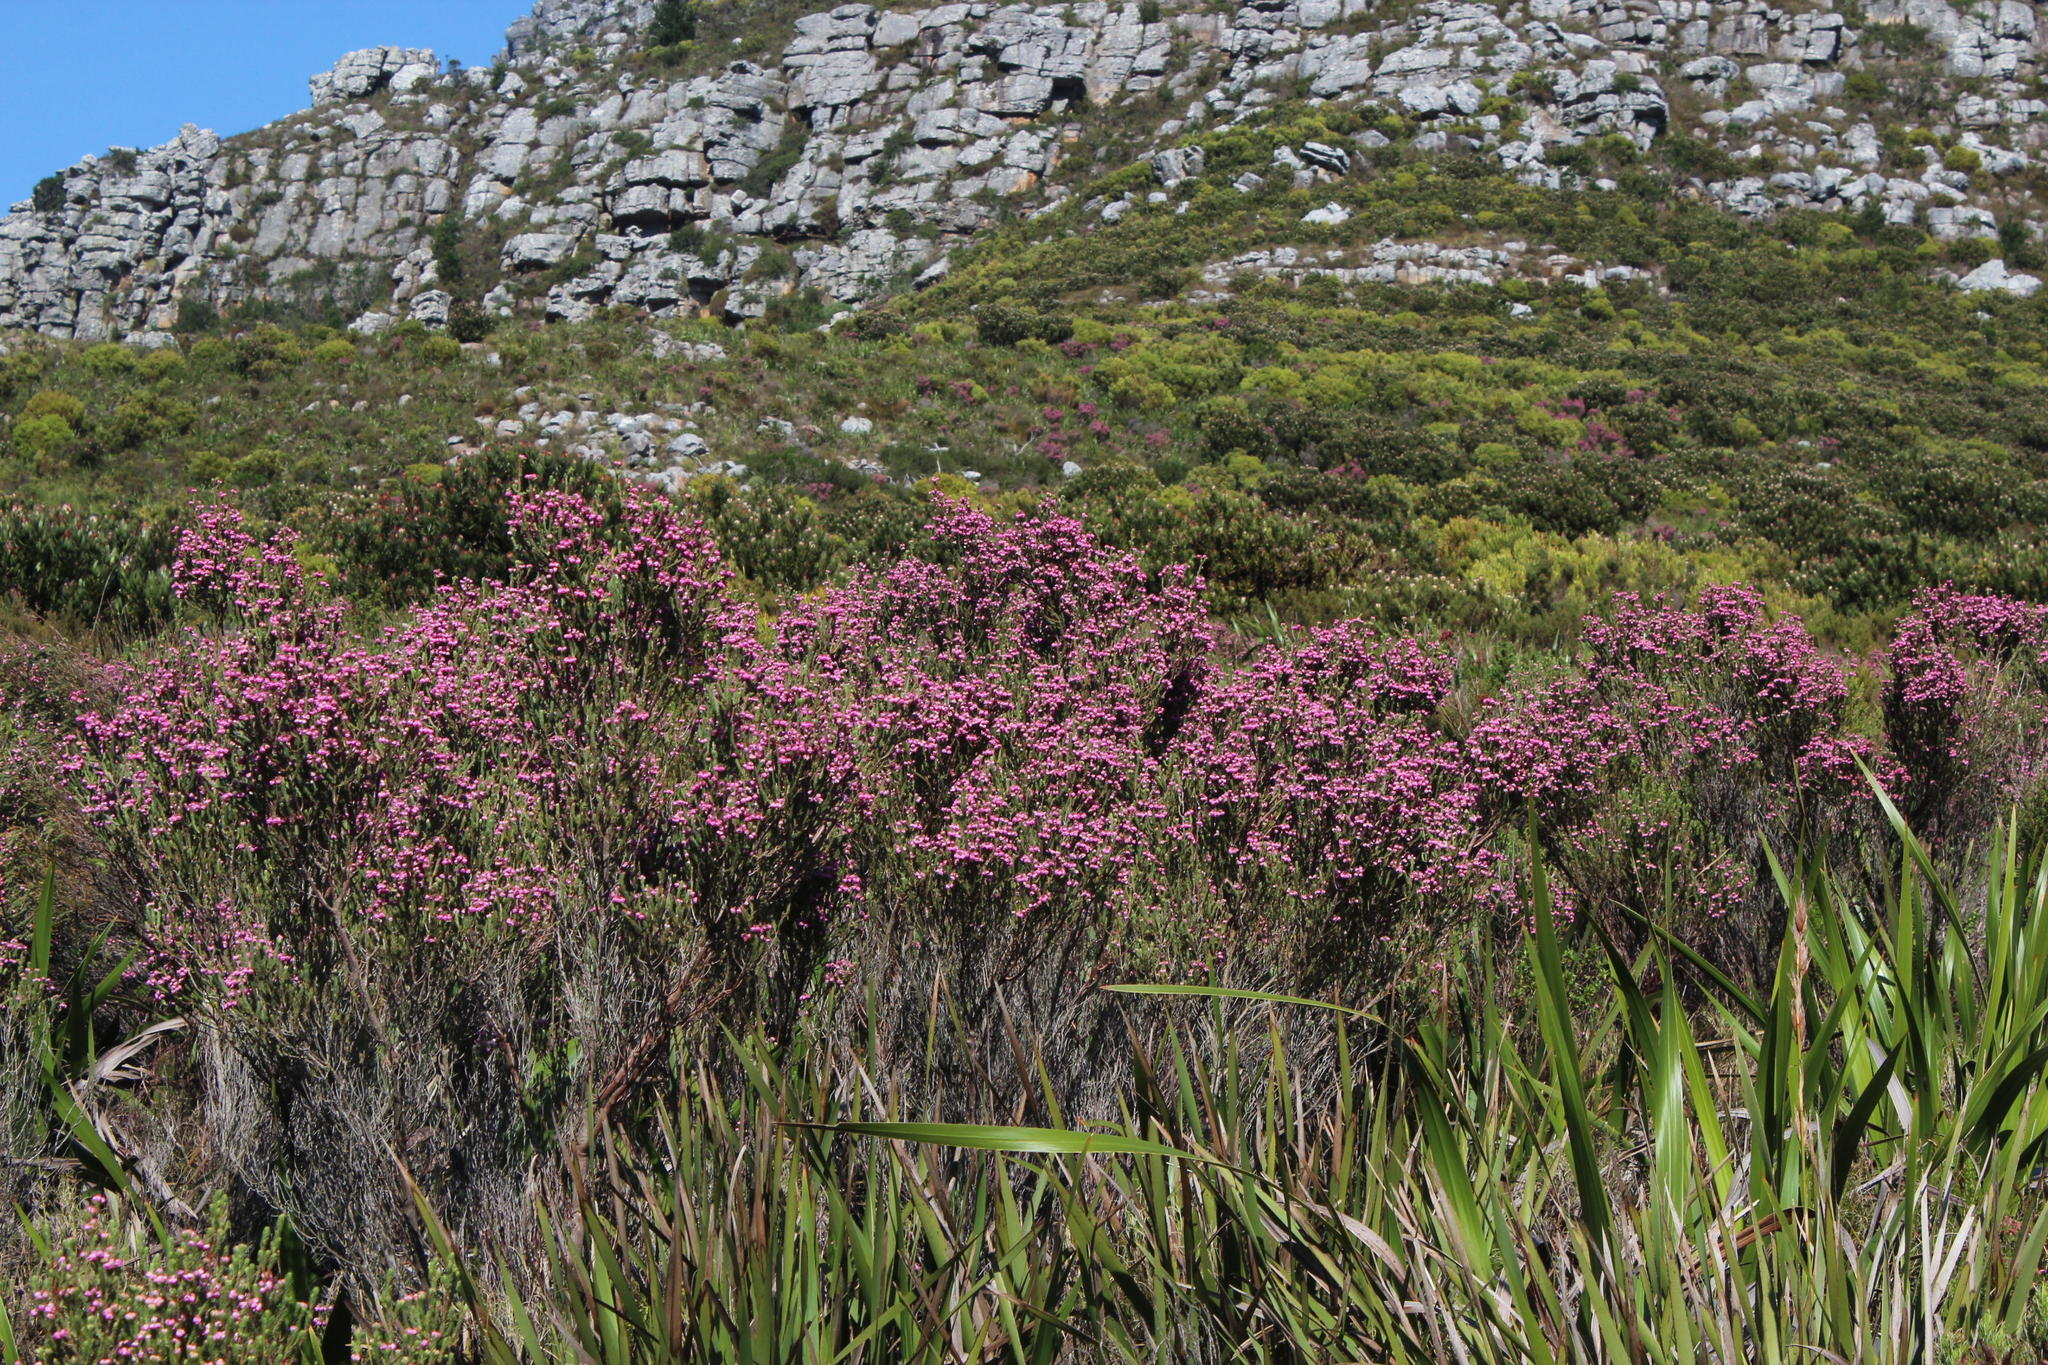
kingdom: Plantae
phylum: Tracheophyta
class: Magnoliopsida
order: Ericales
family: Ericaceae
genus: Erica
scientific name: Erica baccans
